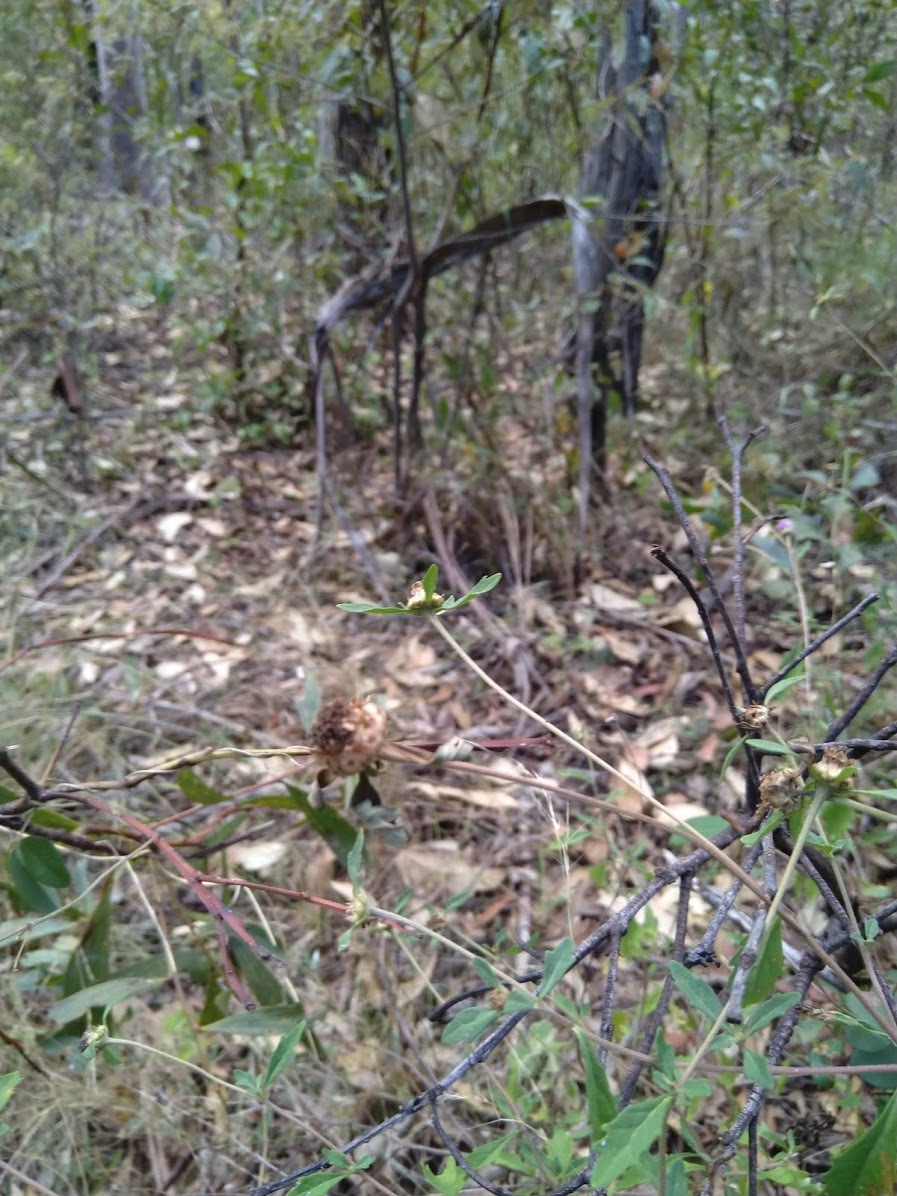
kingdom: Plantae
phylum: Tracheophyta
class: Magnoliopsida
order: Asterales
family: Asteraceae
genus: Centratherum
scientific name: Centratherum punctatum
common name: Larkdaisy
